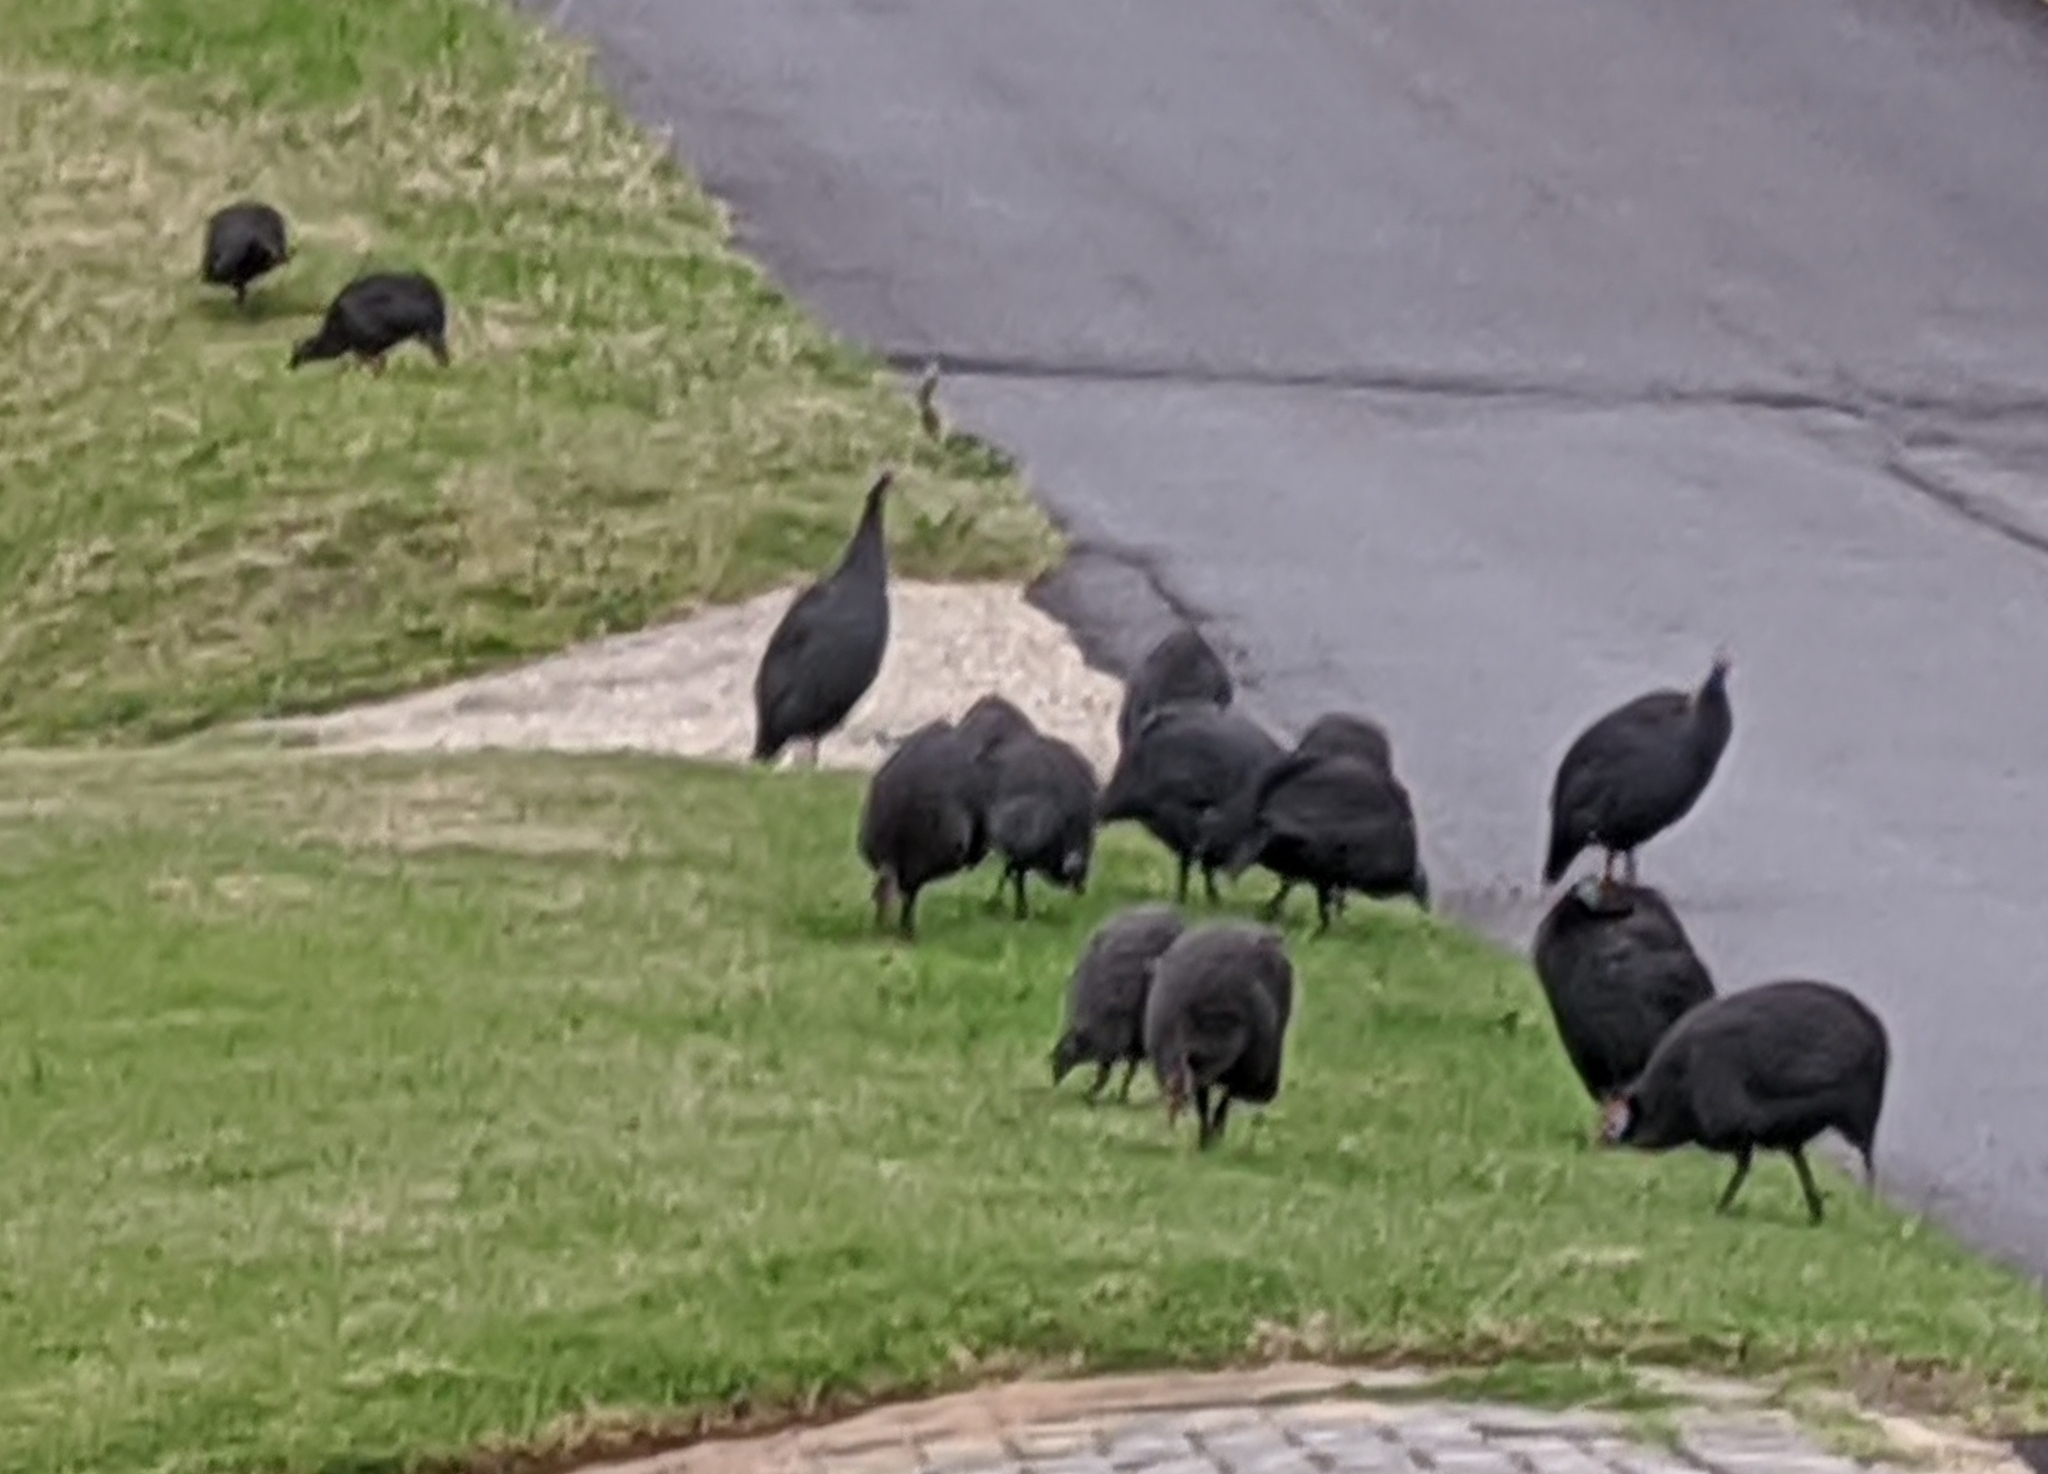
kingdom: Animalia
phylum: Chordata
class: Aves
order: Galliformes
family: Numididae
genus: Numida
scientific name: Numida meleagris
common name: Helmeted guineafowl
